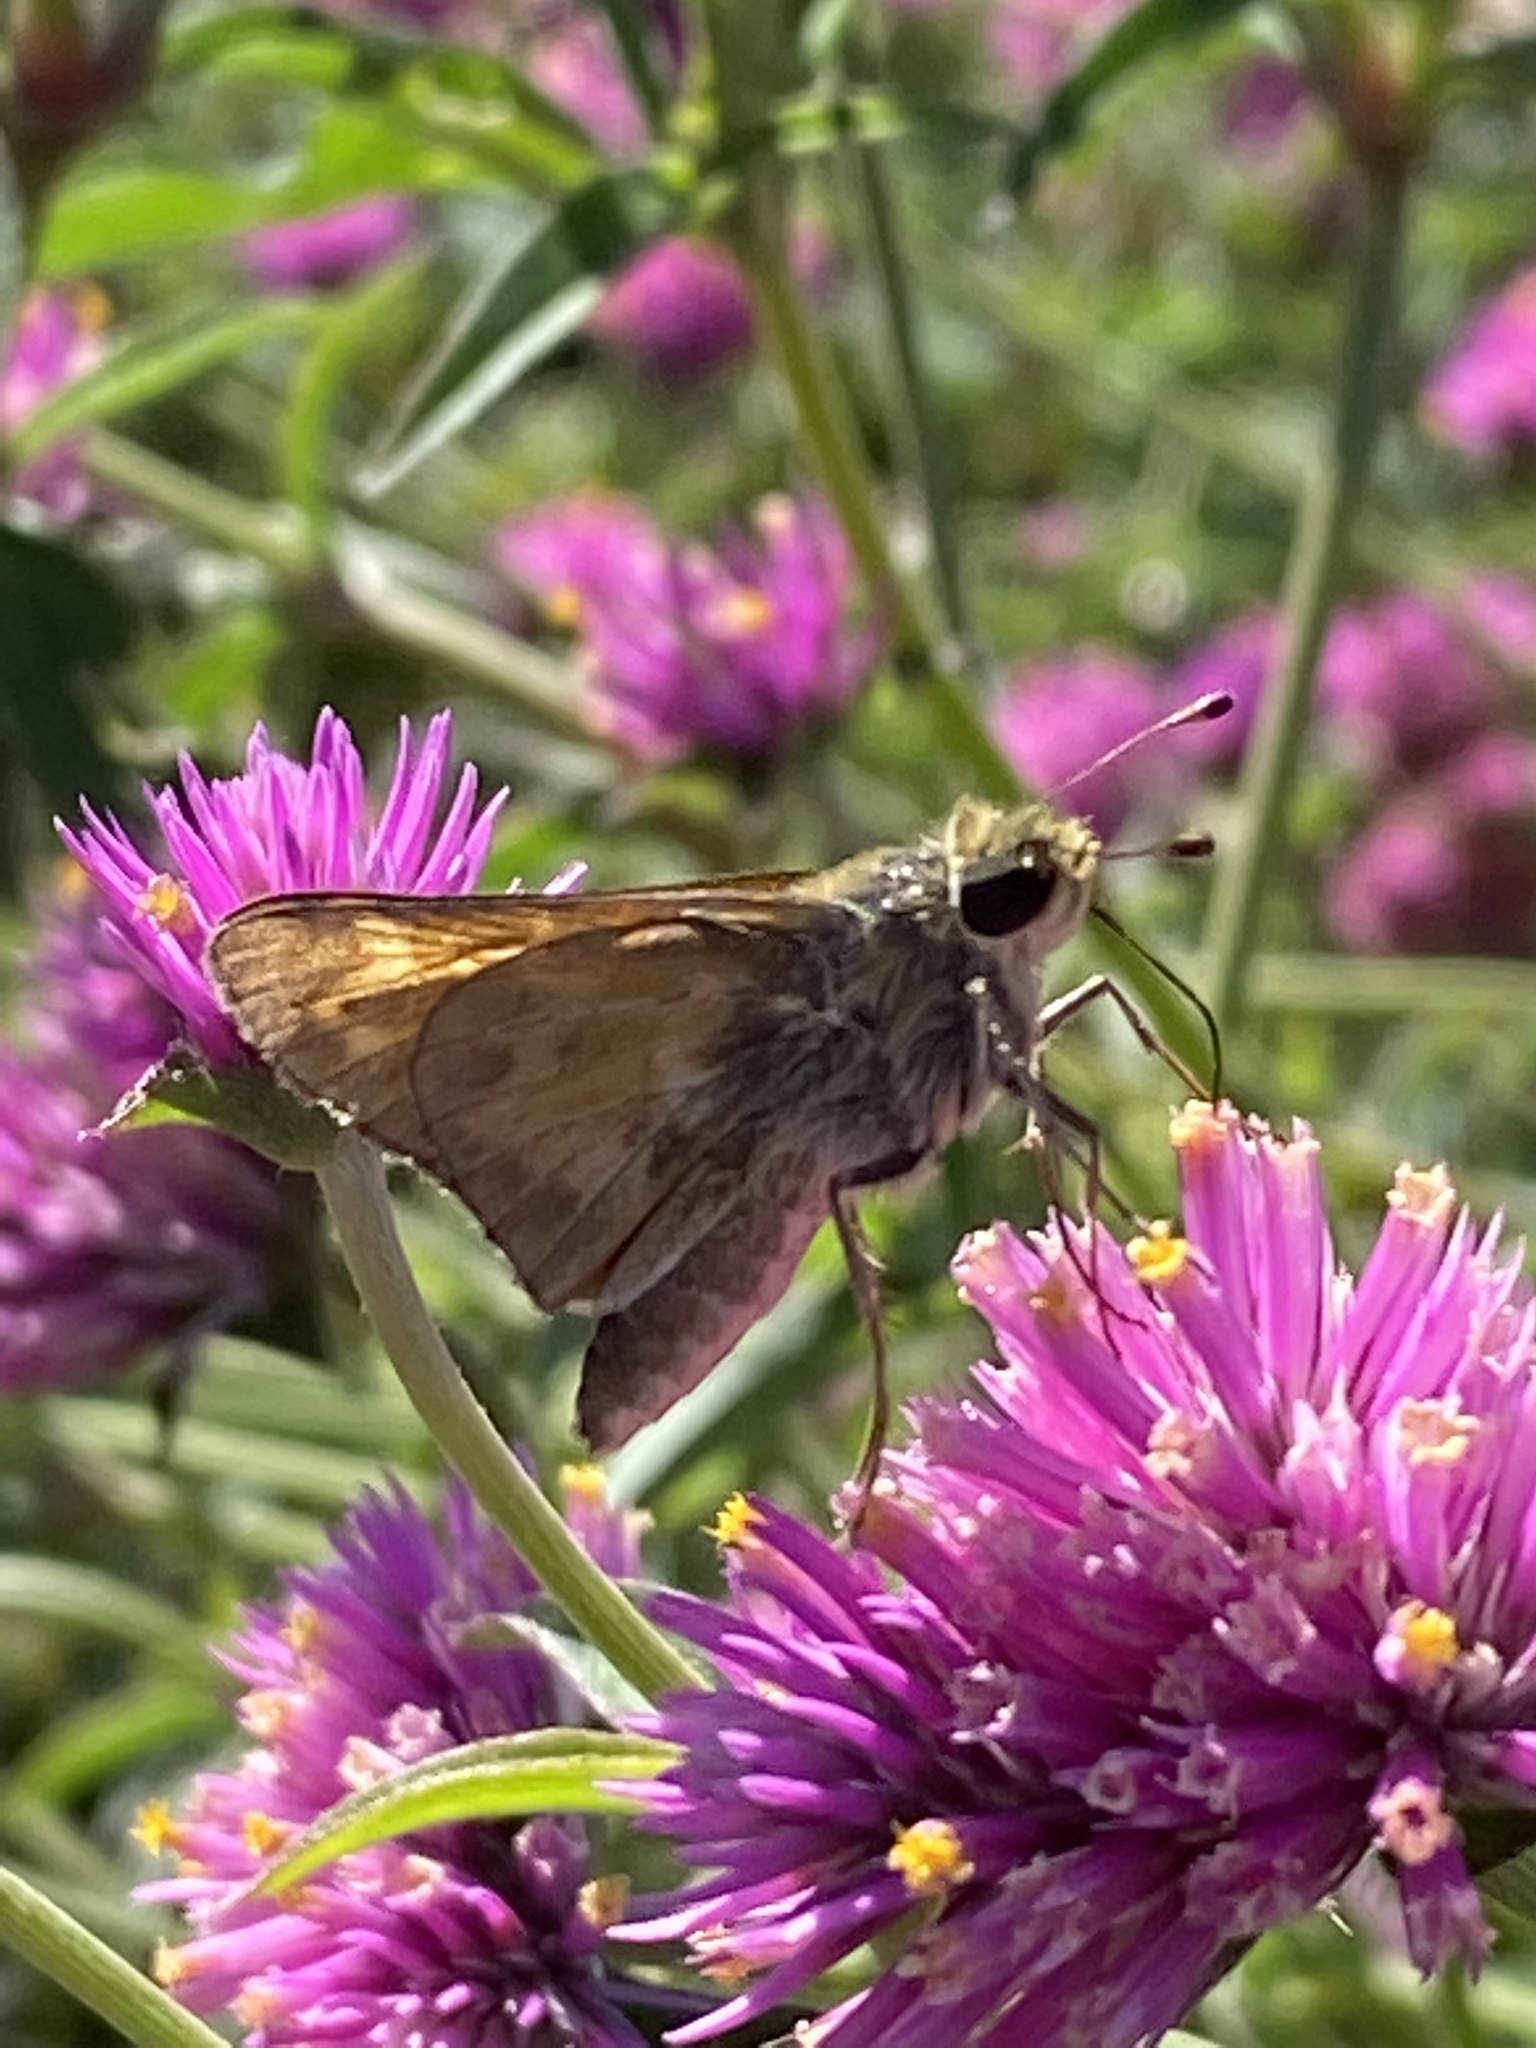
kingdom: Animalia
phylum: Arthropoda
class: Insecta
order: Lepidoptera
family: Hesperiidae
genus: Atalopedes
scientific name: Atalopedes
